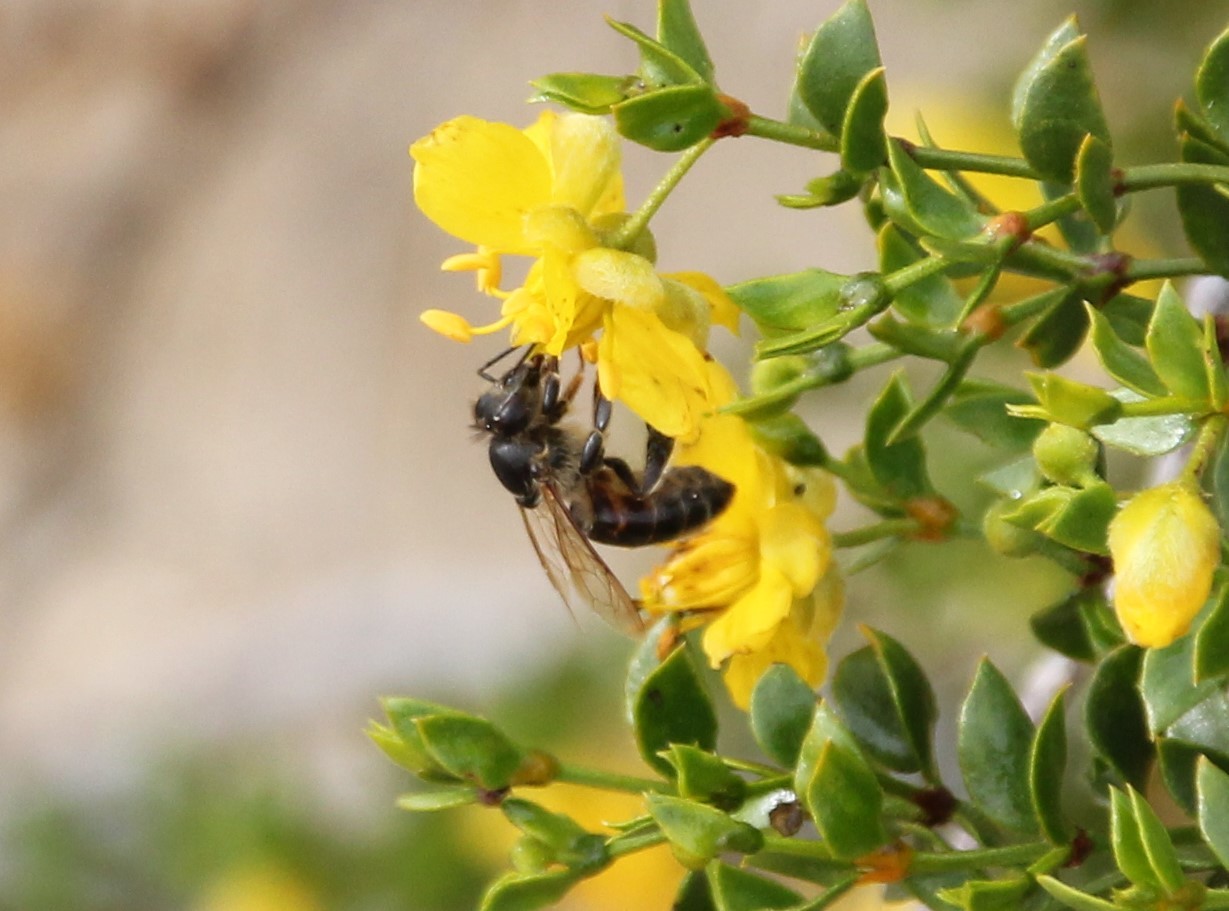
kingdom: Animalia
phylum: Arthropoda
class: Insecta
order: Hymenoptera
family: Apidae
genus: Apis
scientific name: Apis mellifera
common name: Honey bee
